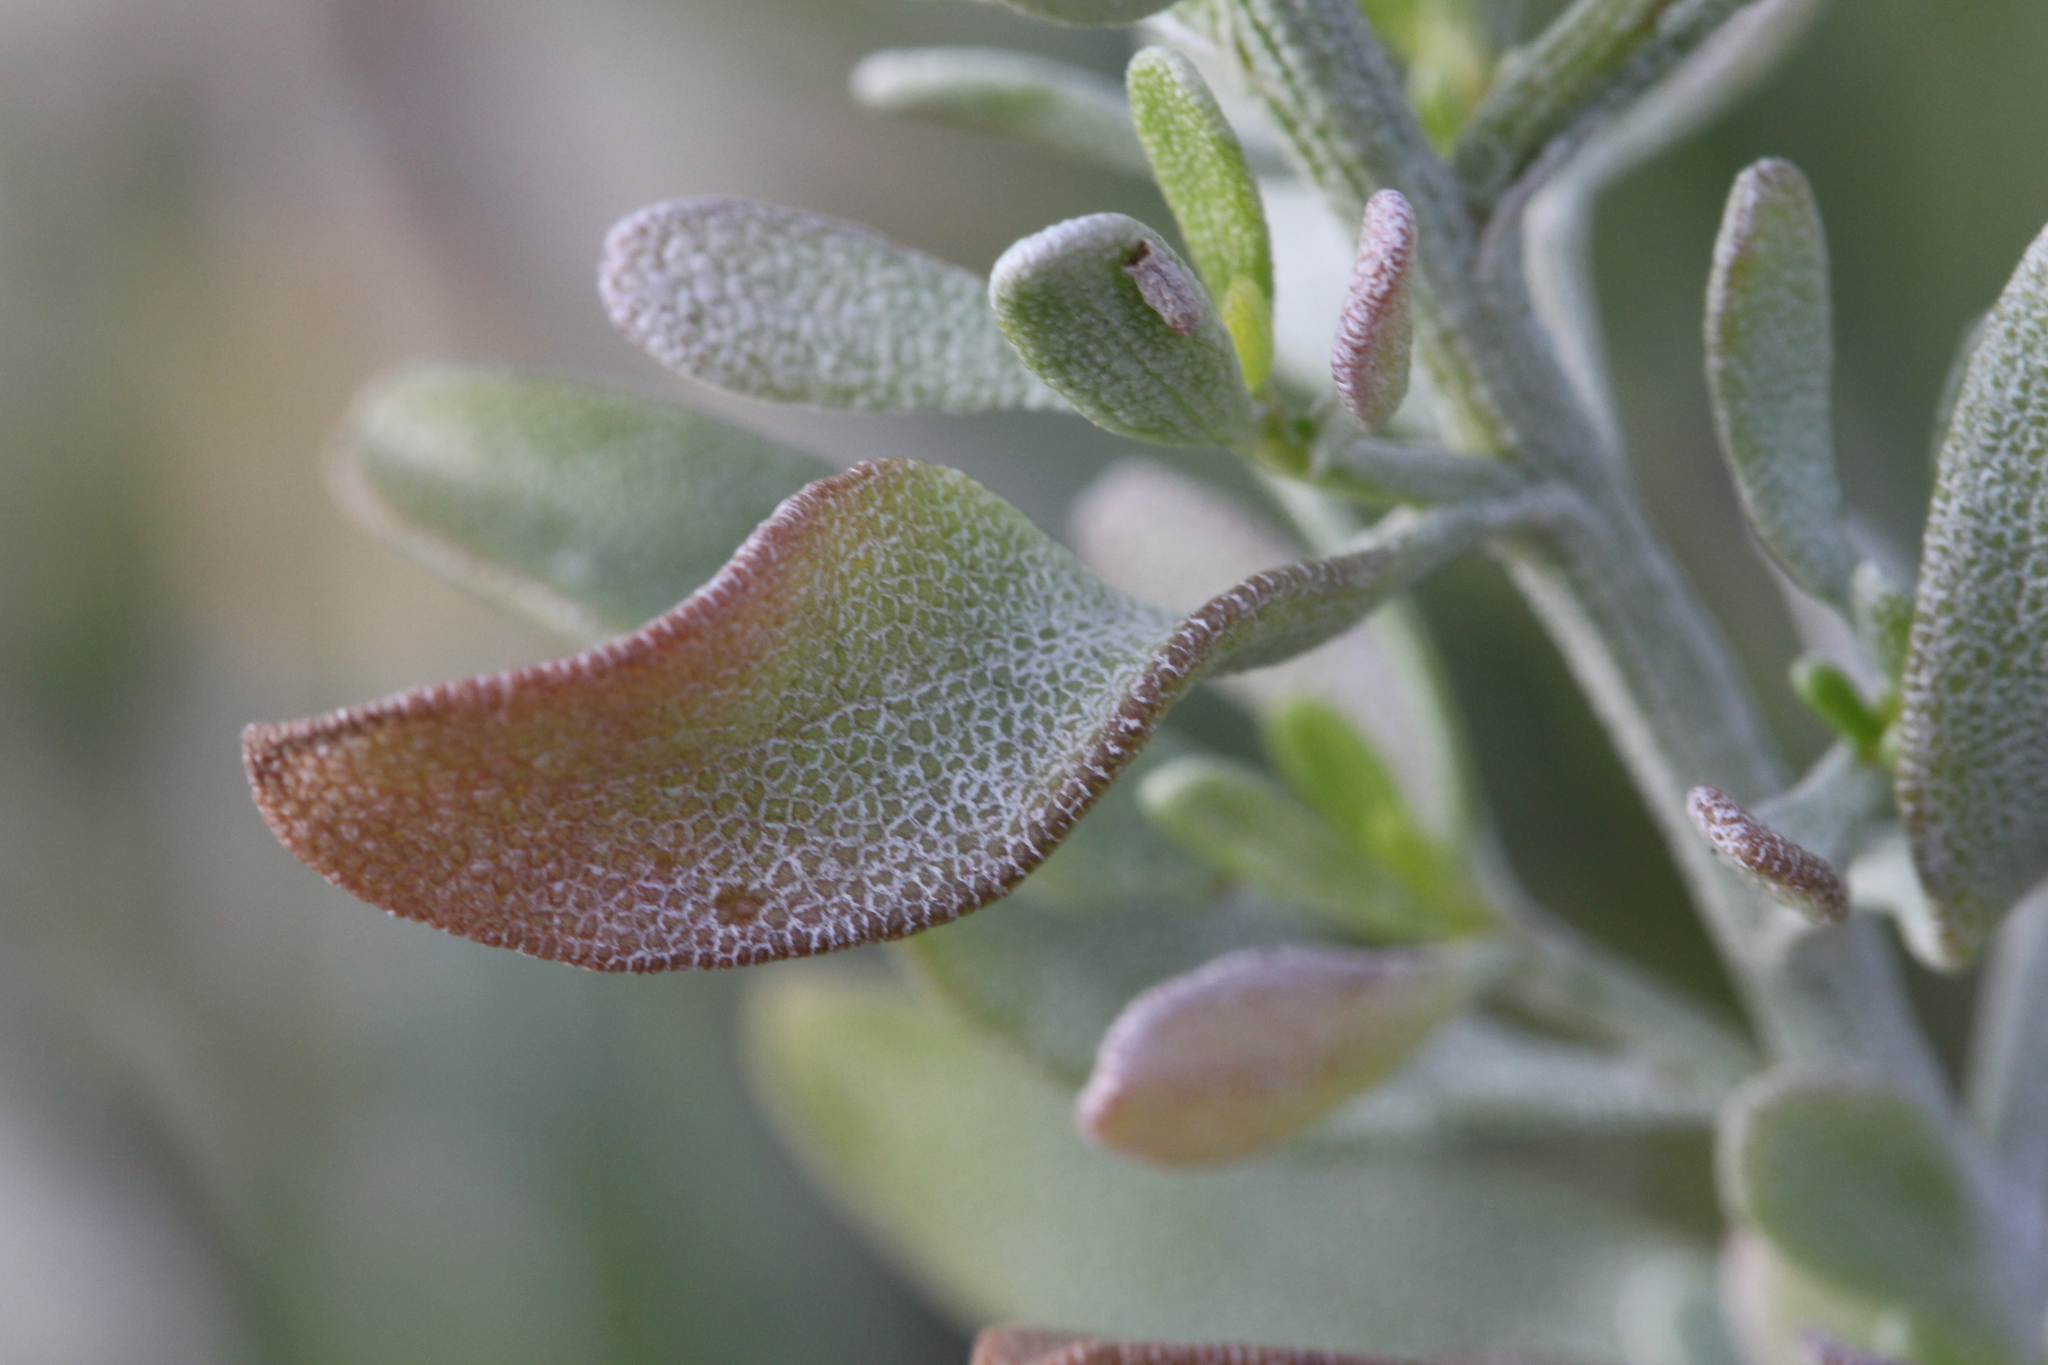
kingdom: Plantae
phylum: Tracheophyta
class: Magnoliopsida
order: Asterales
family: Asteraceae
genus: Chrysoma
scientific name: Chrysoma pauciflosculosa
